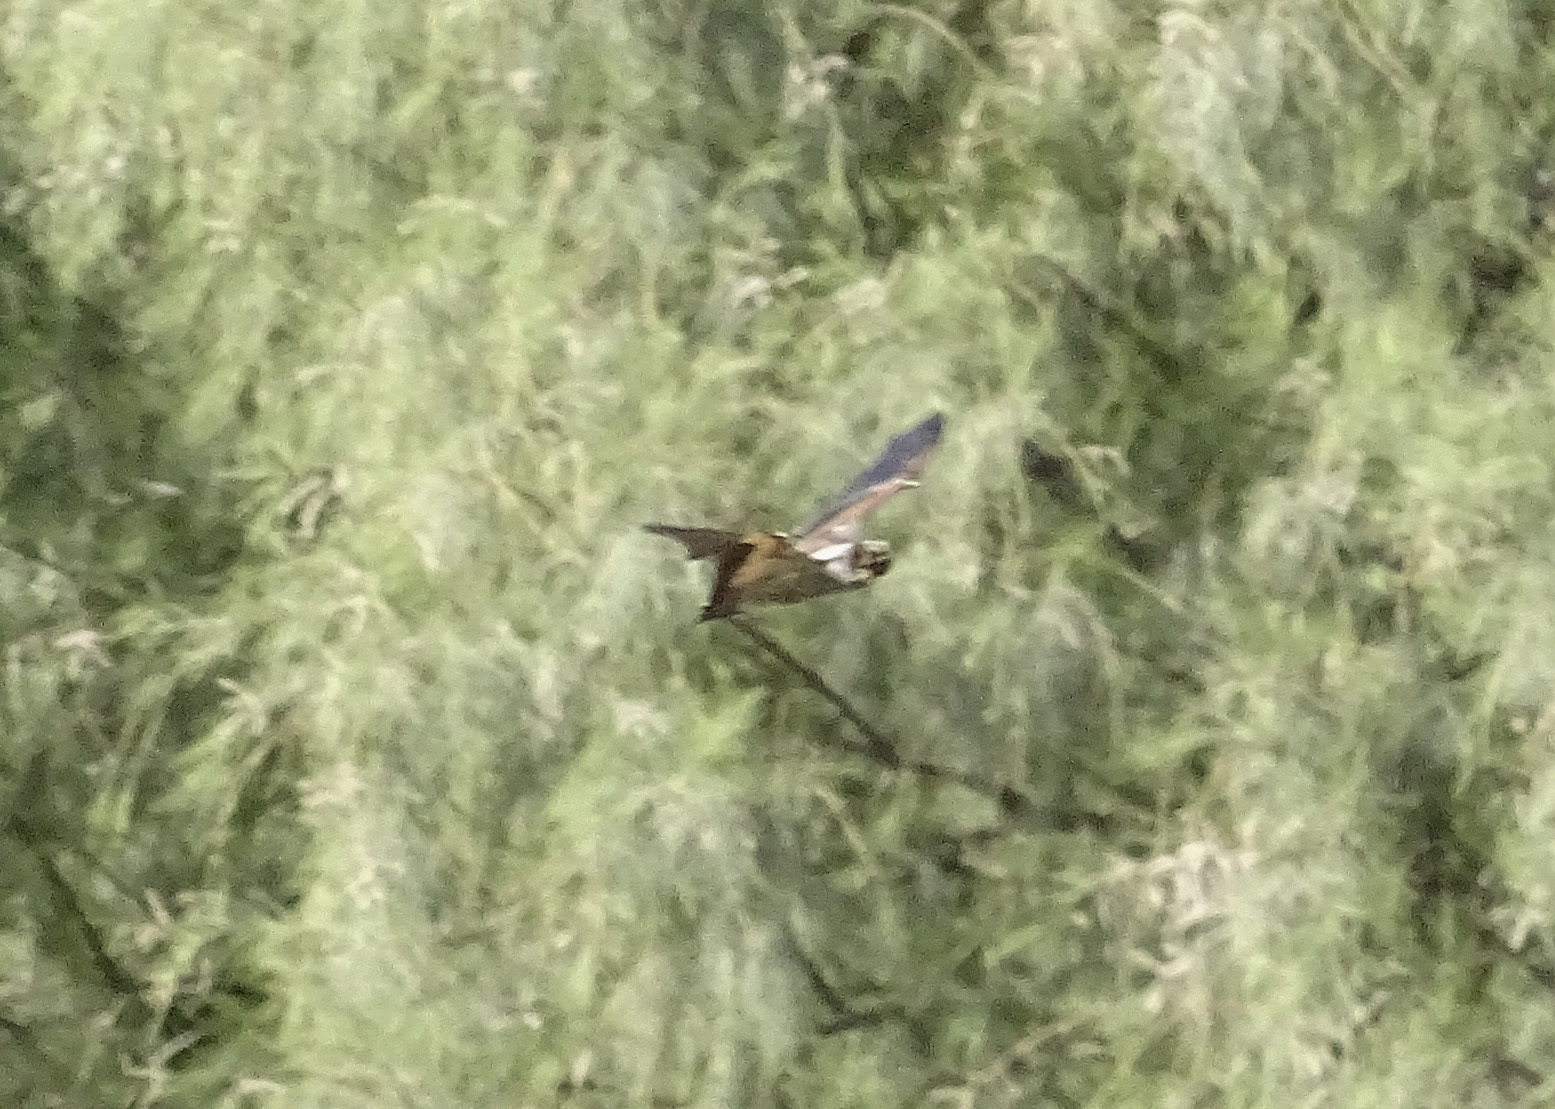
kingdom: Animalia
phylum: Chordata
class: Mammalia
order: Chiroptera
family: Vespertilionidae
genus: Aeorestes
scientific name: Aeorestes cinereus
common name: North american hoary bat
